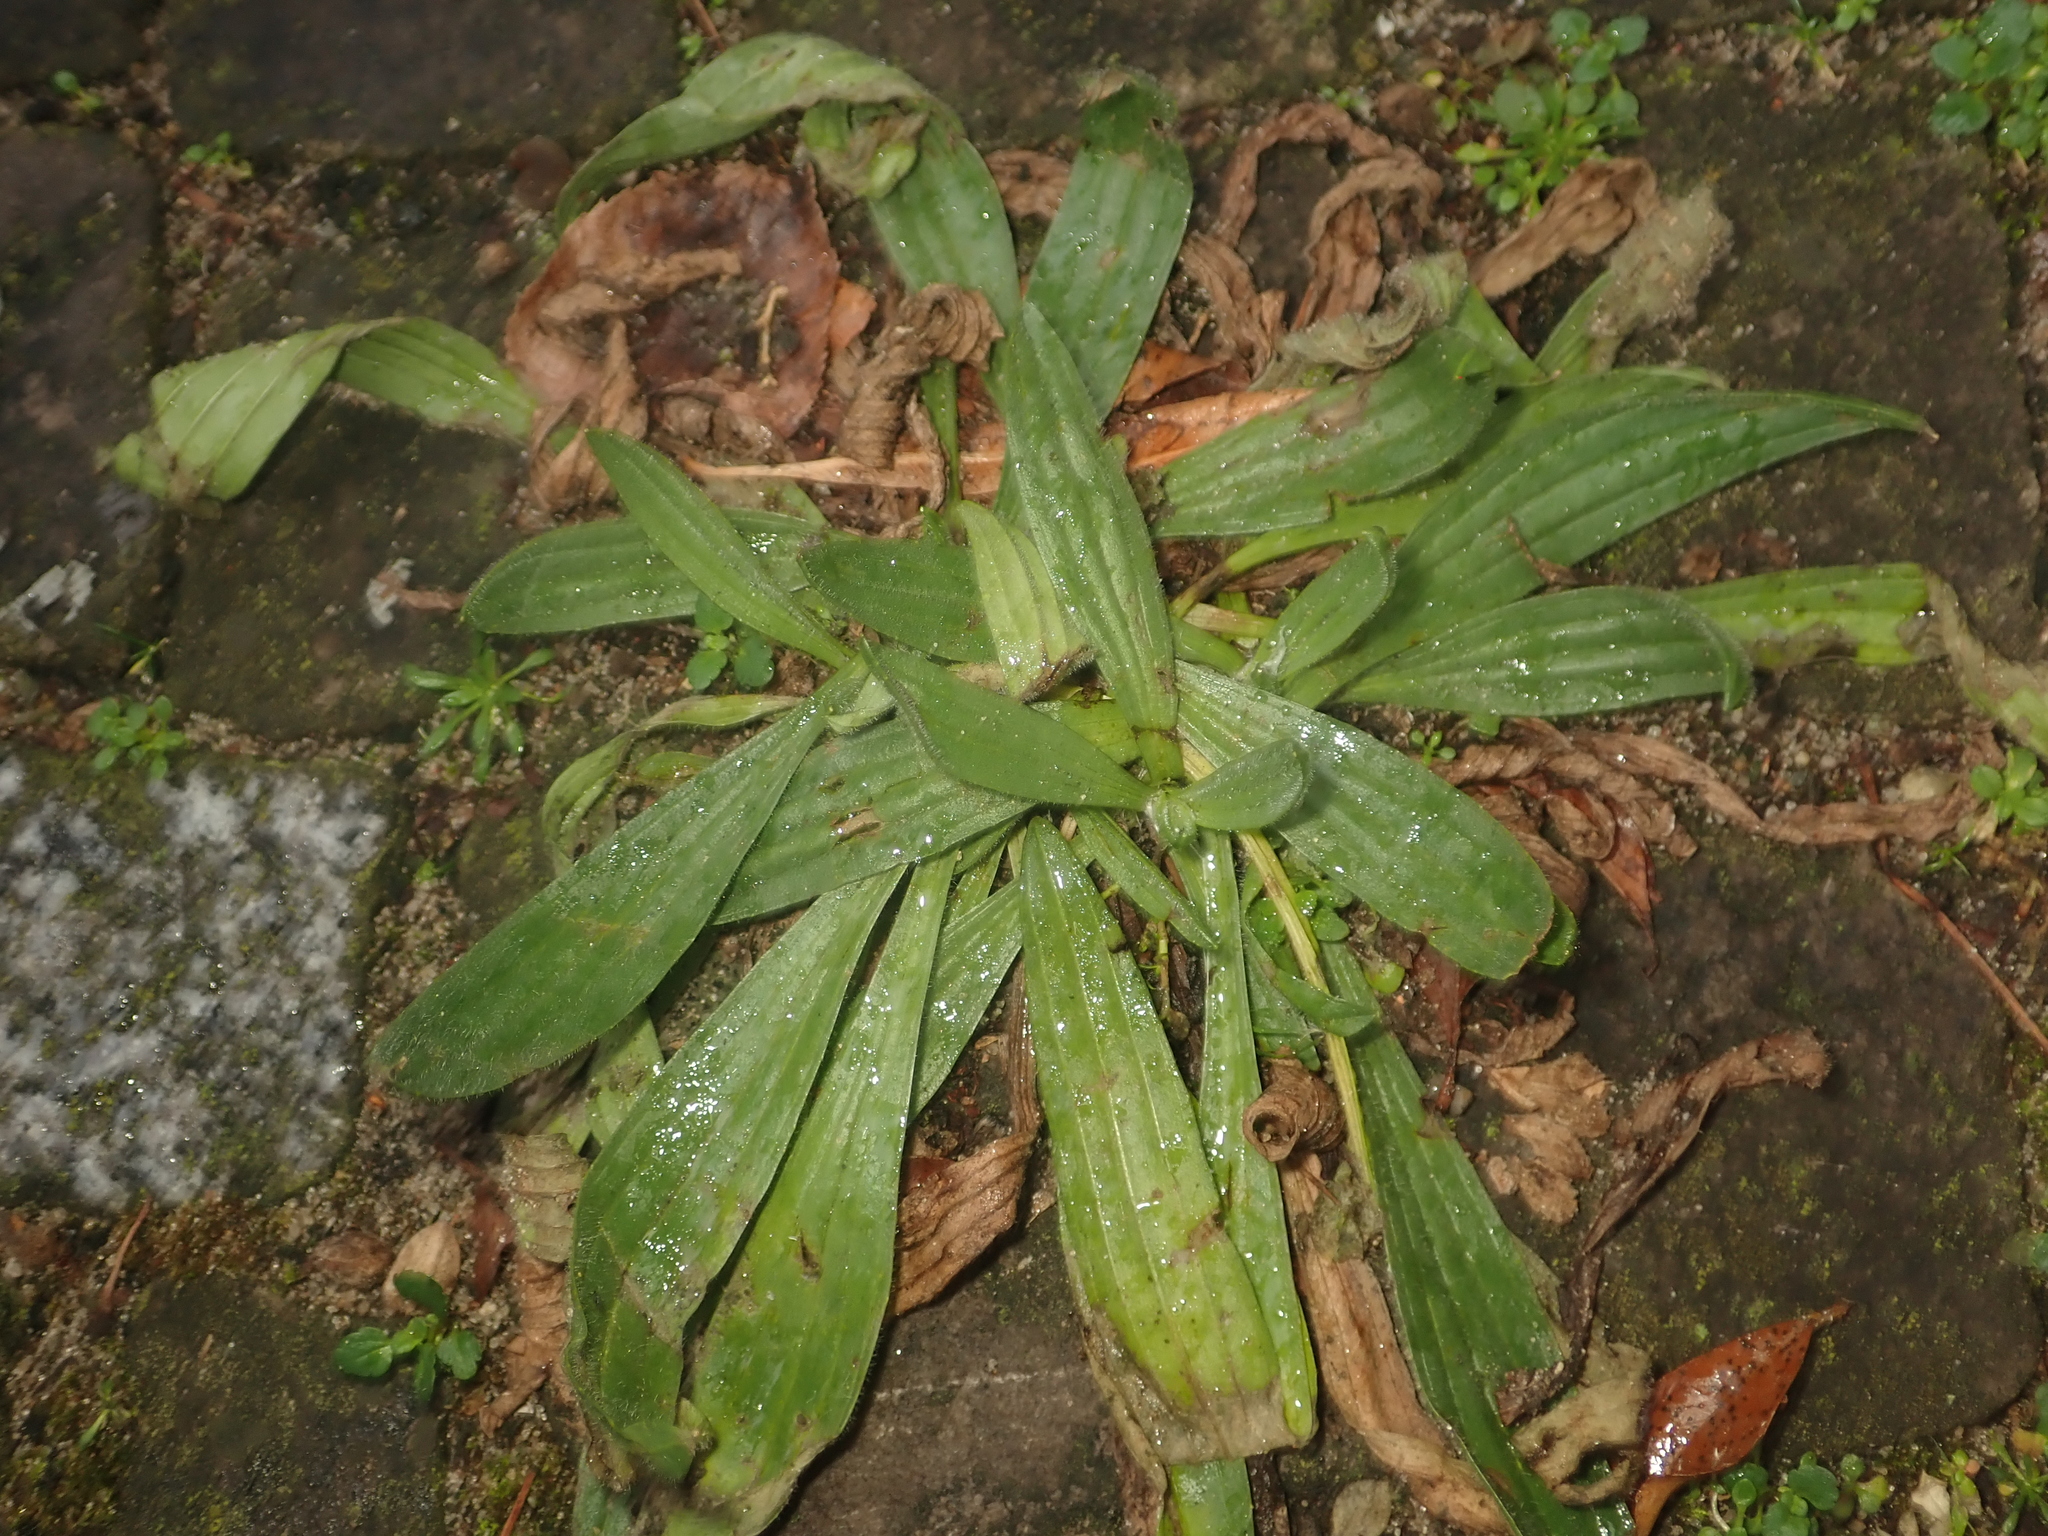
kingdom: Plantae
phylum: Tracheophyta
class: Magnoliopsida
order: Lamiales
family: Plantaginaceae
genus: Plantago
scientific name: Plantago lanceolata
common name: Ribwort plantain
